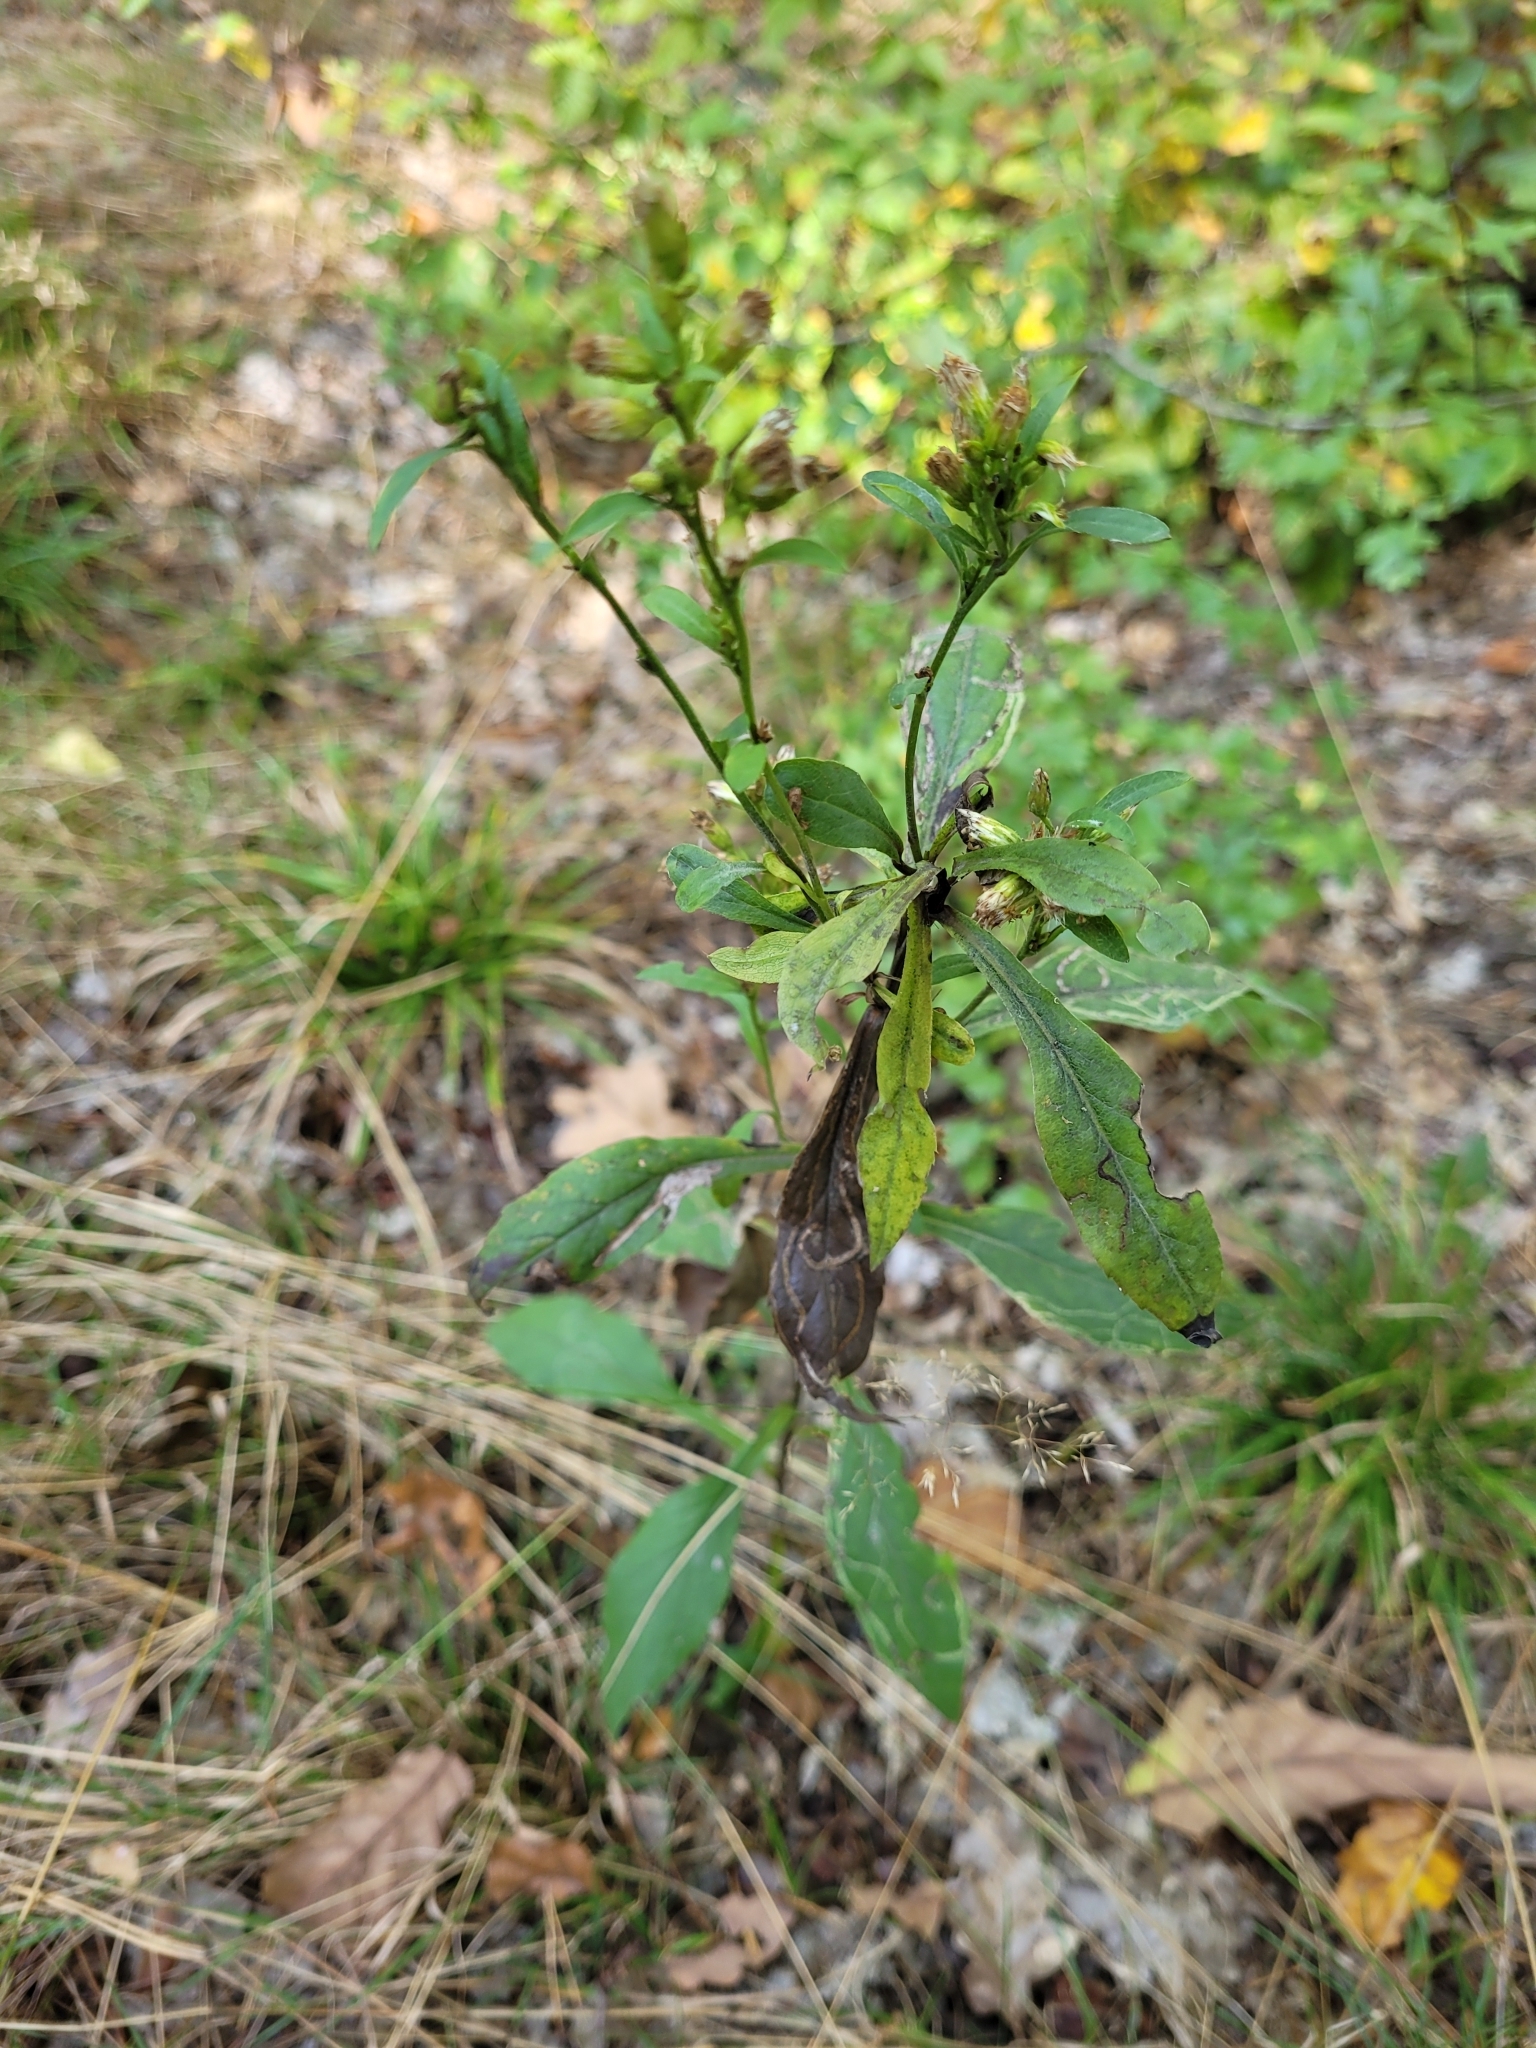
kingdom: Plantae
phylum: Tracheophyta
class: Magnoliopsida
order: Asterales
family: Asteraceae
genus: Solidago
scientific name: Solidago virgaurea
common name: Goldenrod
